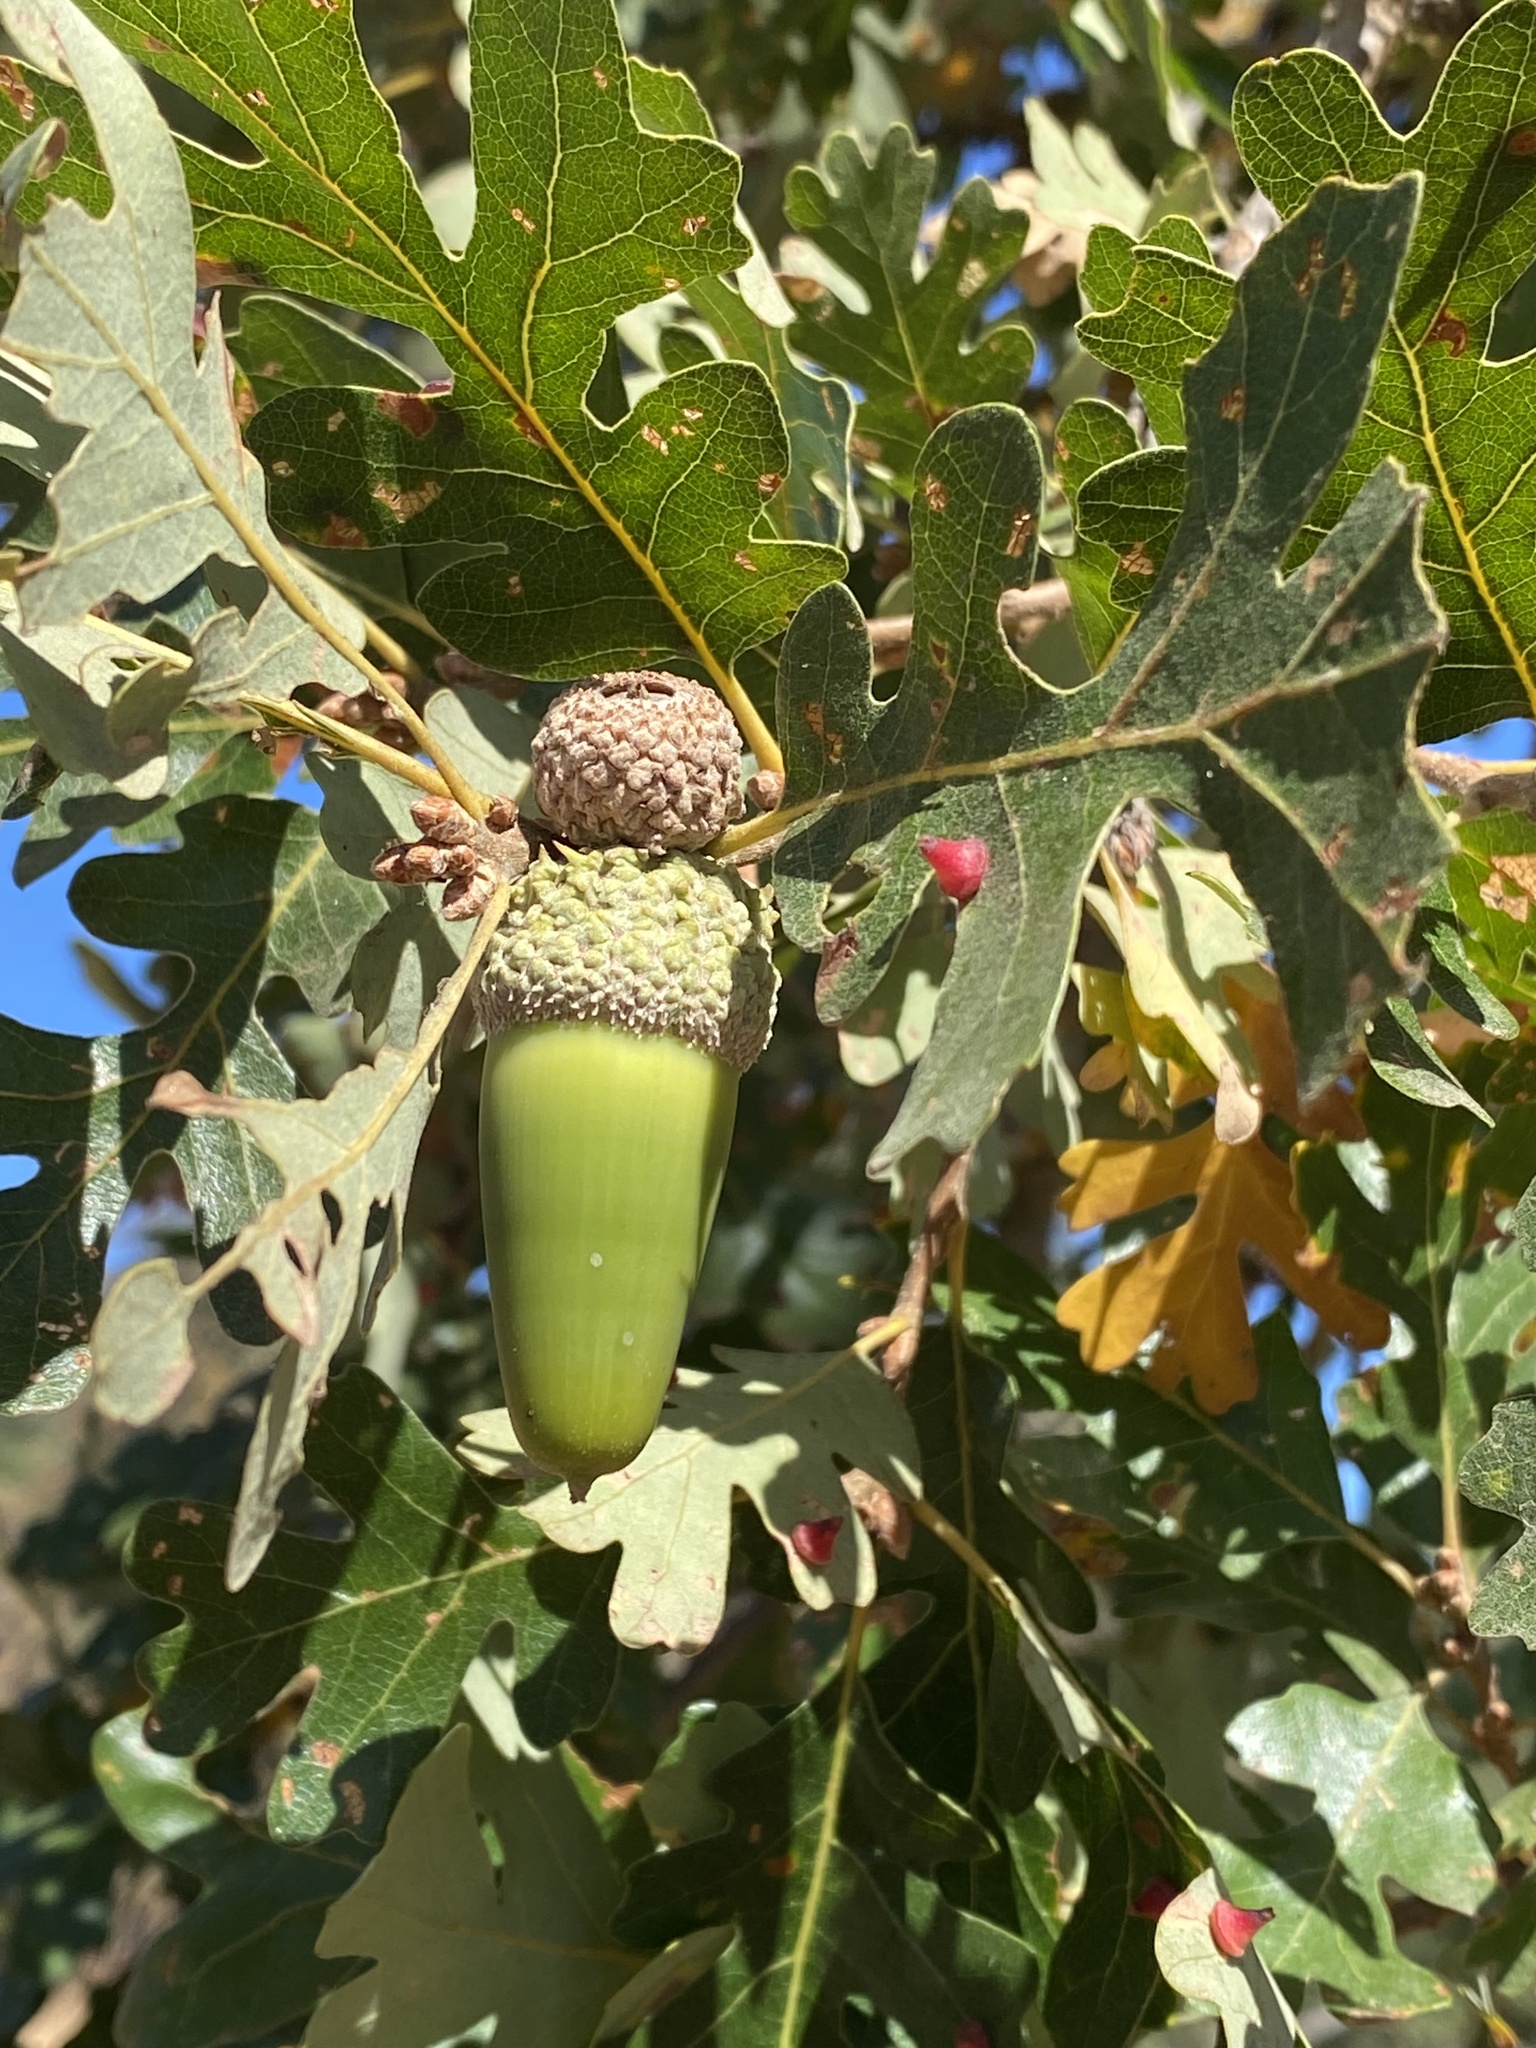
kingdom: Plantae
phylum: Tracheophyta
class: Magnoliopsida
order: Fagales
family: Fagaceae
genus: Quercus
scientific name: Quercus lobata
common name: Valley oak
